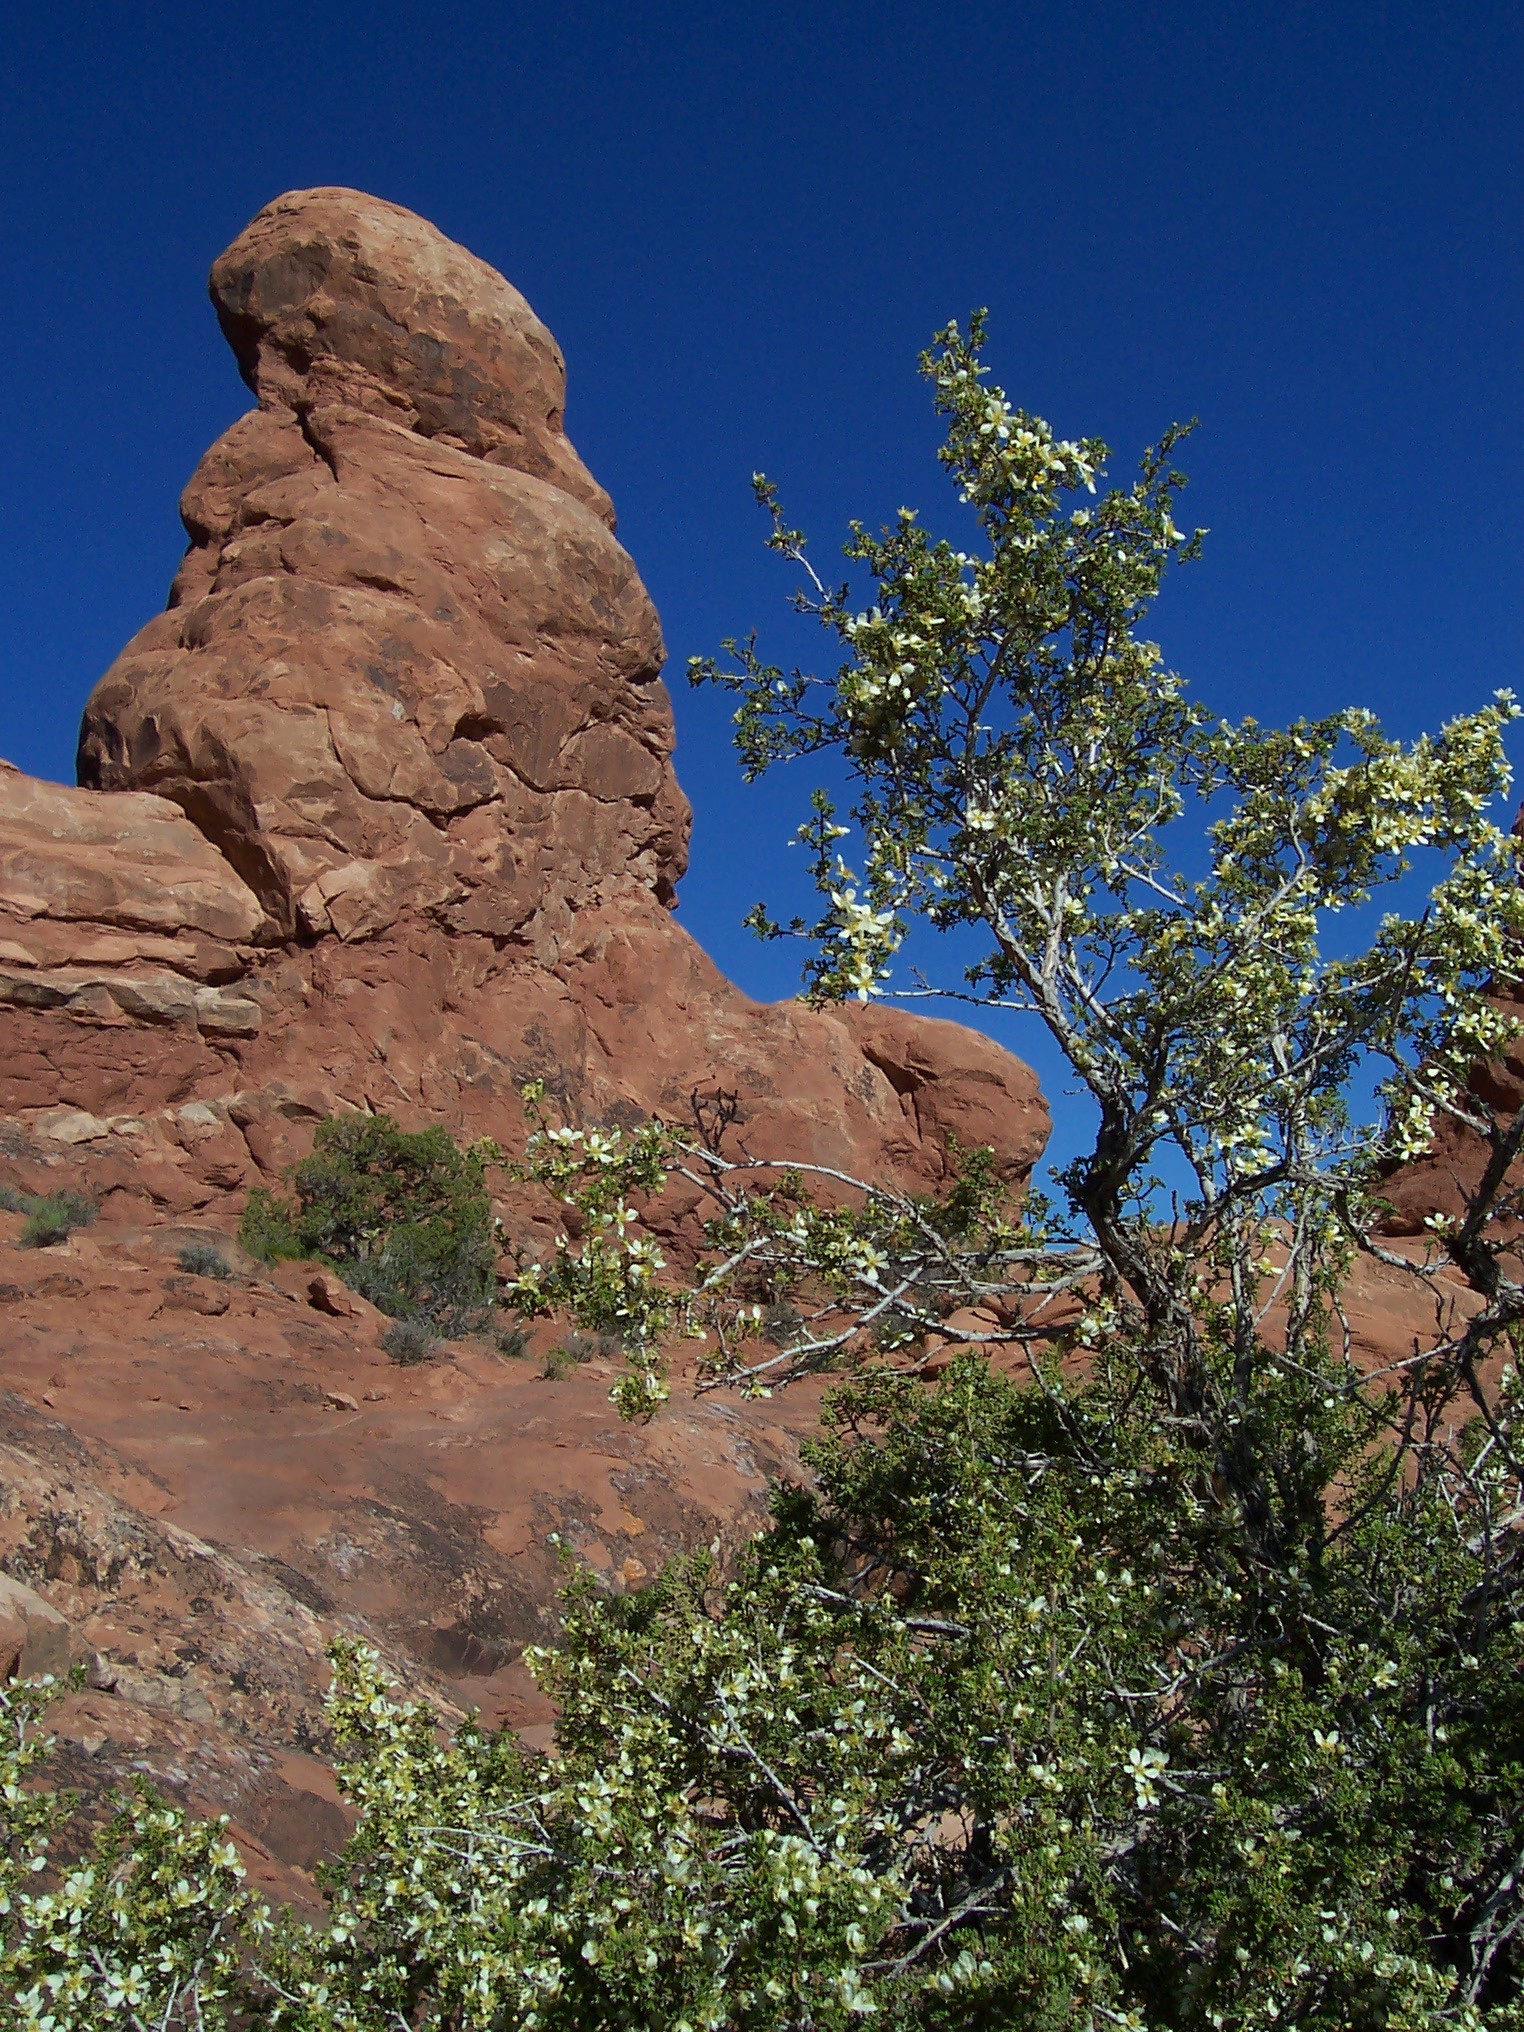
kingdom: Plantae
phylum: Tracheophyta
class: Magnoliopsida
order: Rosales
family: Rosaceae
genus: Purshia
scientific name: Purshia stansburiana
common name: Stansbury's cliffrose
